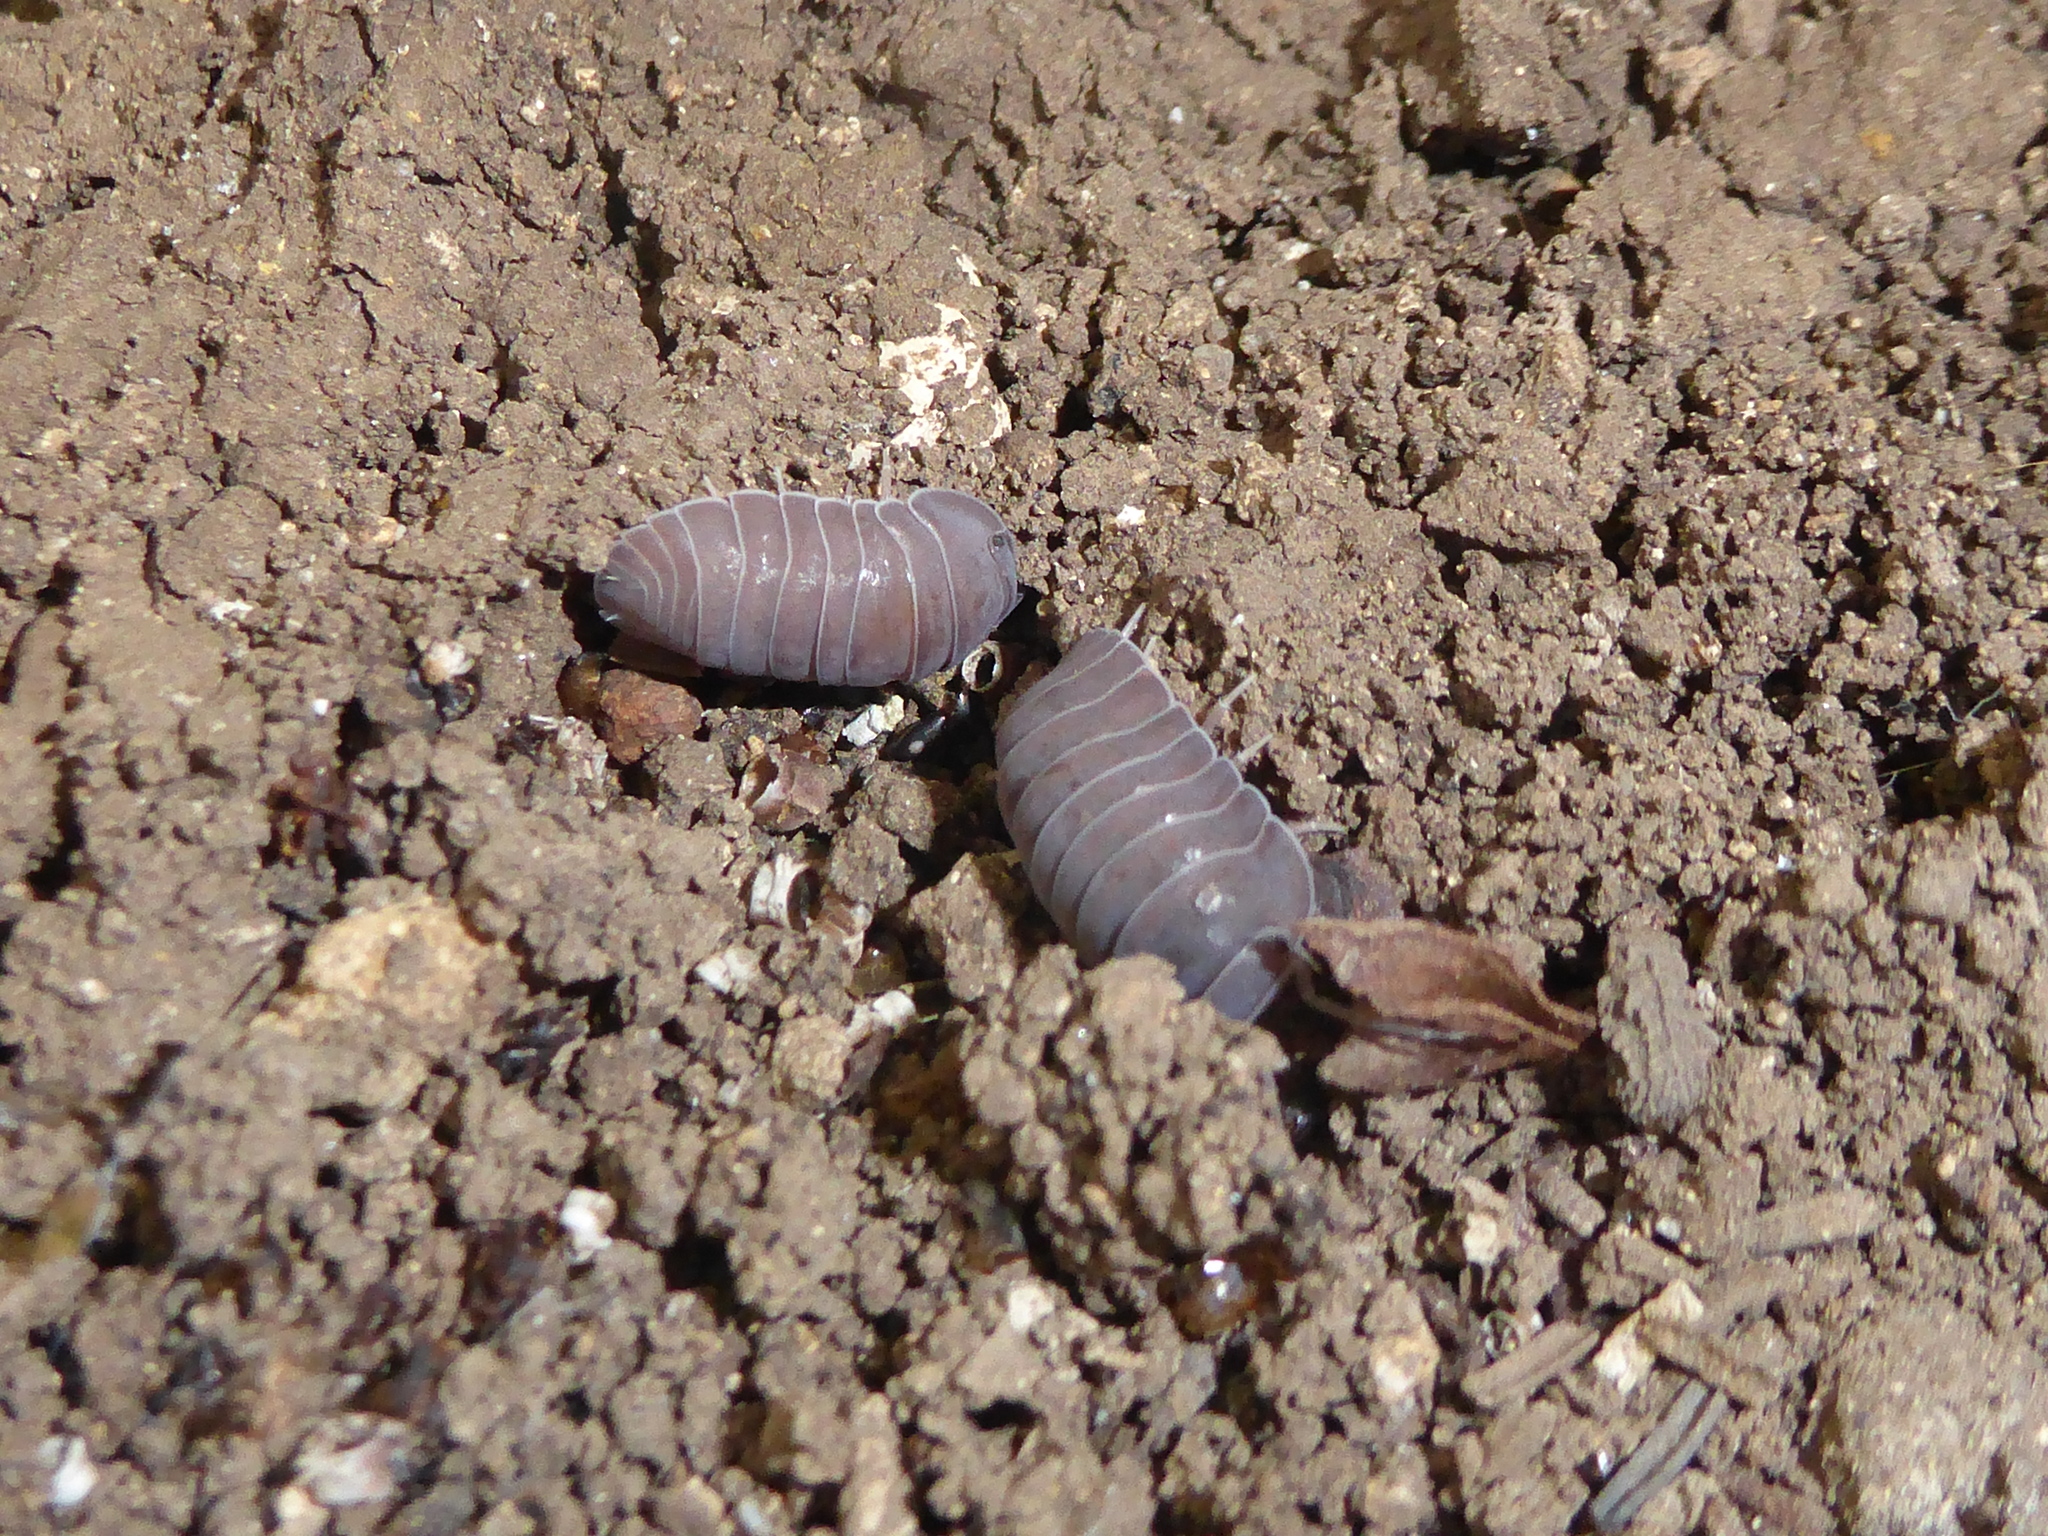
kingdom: Animalia
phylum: Arthropoda
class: Malacostraca
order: Isopoda
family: Armadillidae
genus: Venezillo
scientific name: Venezillo gigas
